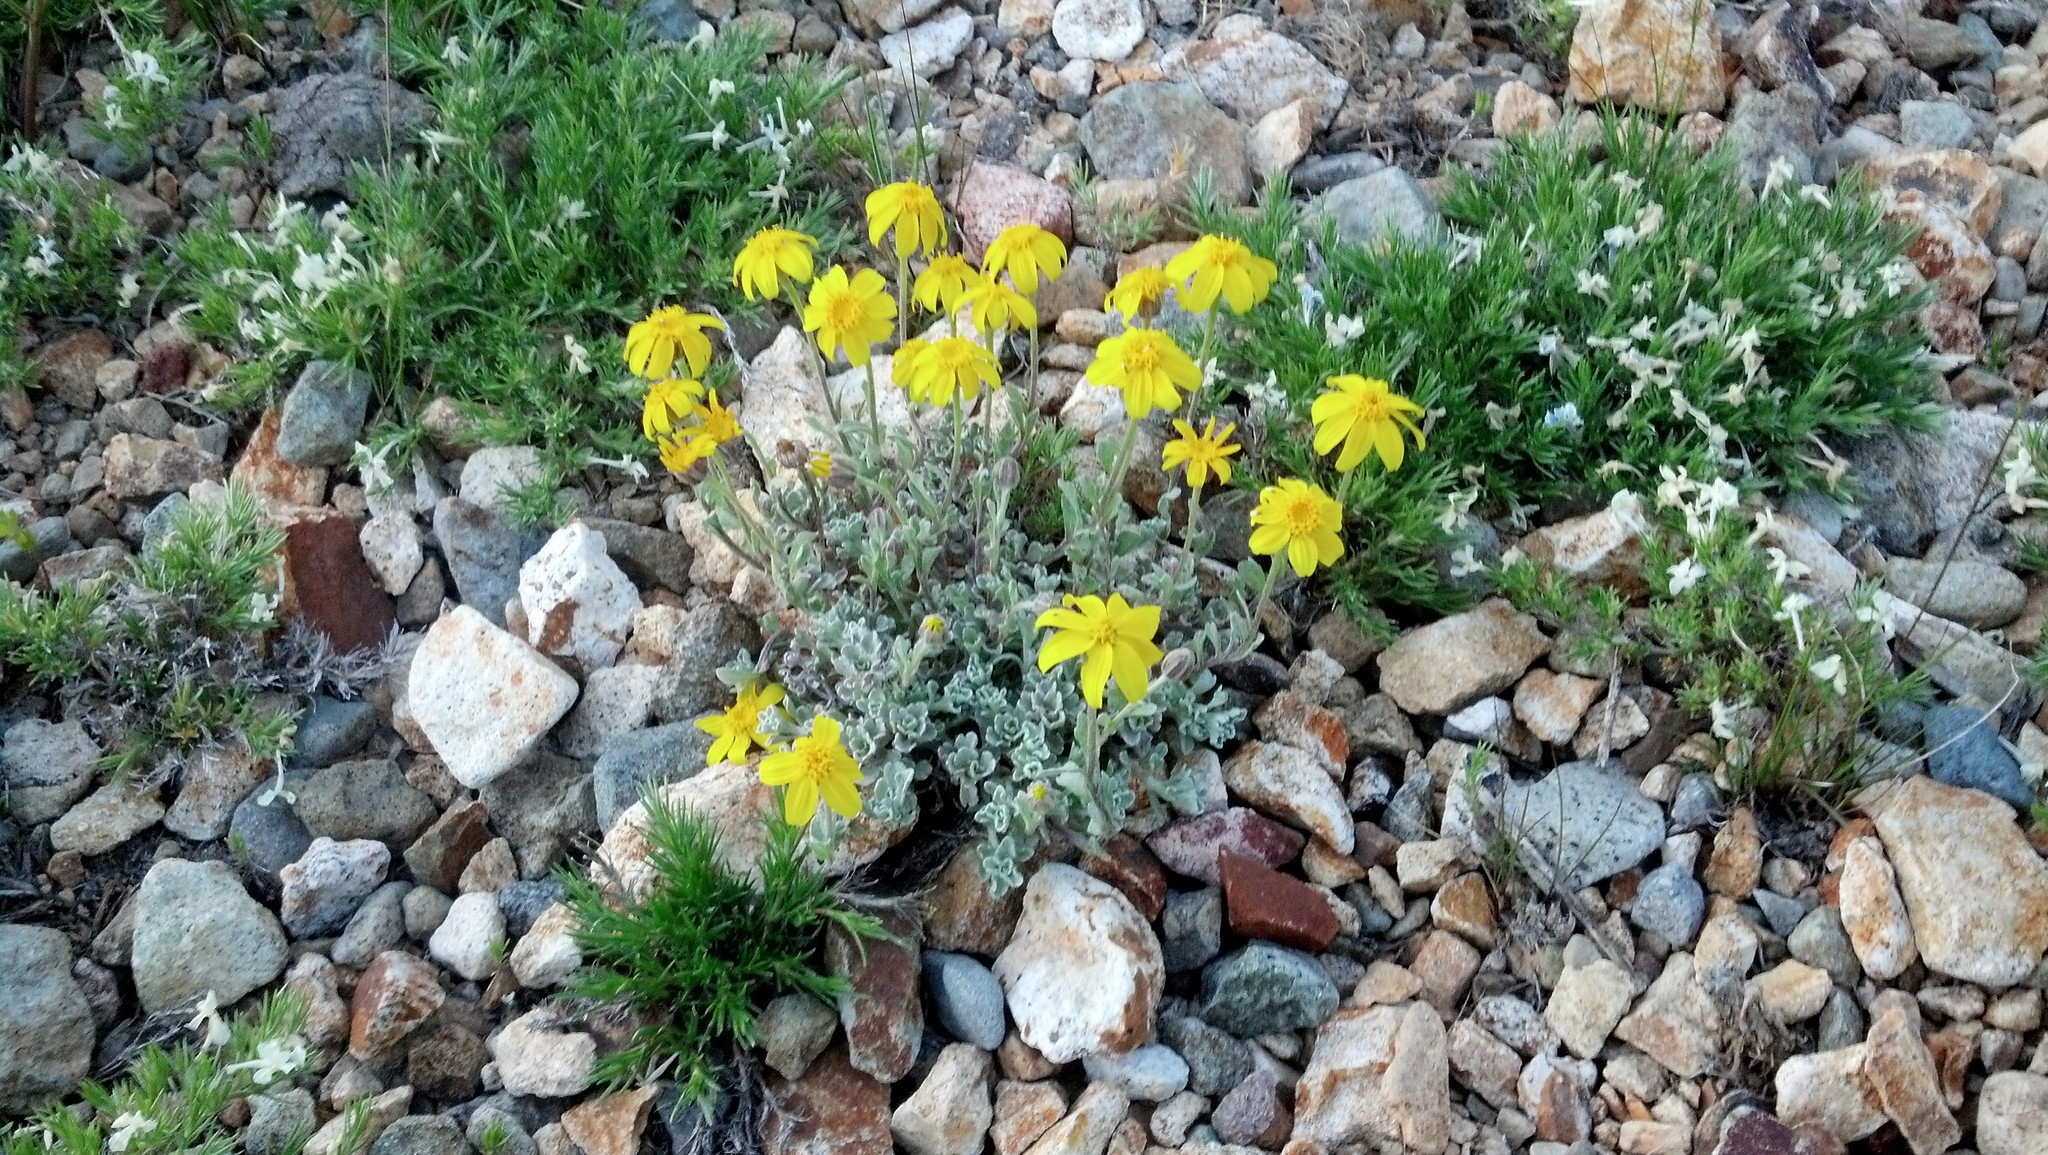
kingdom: Plantae
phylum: Tracheophyta
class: Magnoliopsida
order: Asterales
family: Asteraceae
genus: Eriophyllum
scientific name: Eriophyllum lanatum
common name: Common woolly-sunflower
